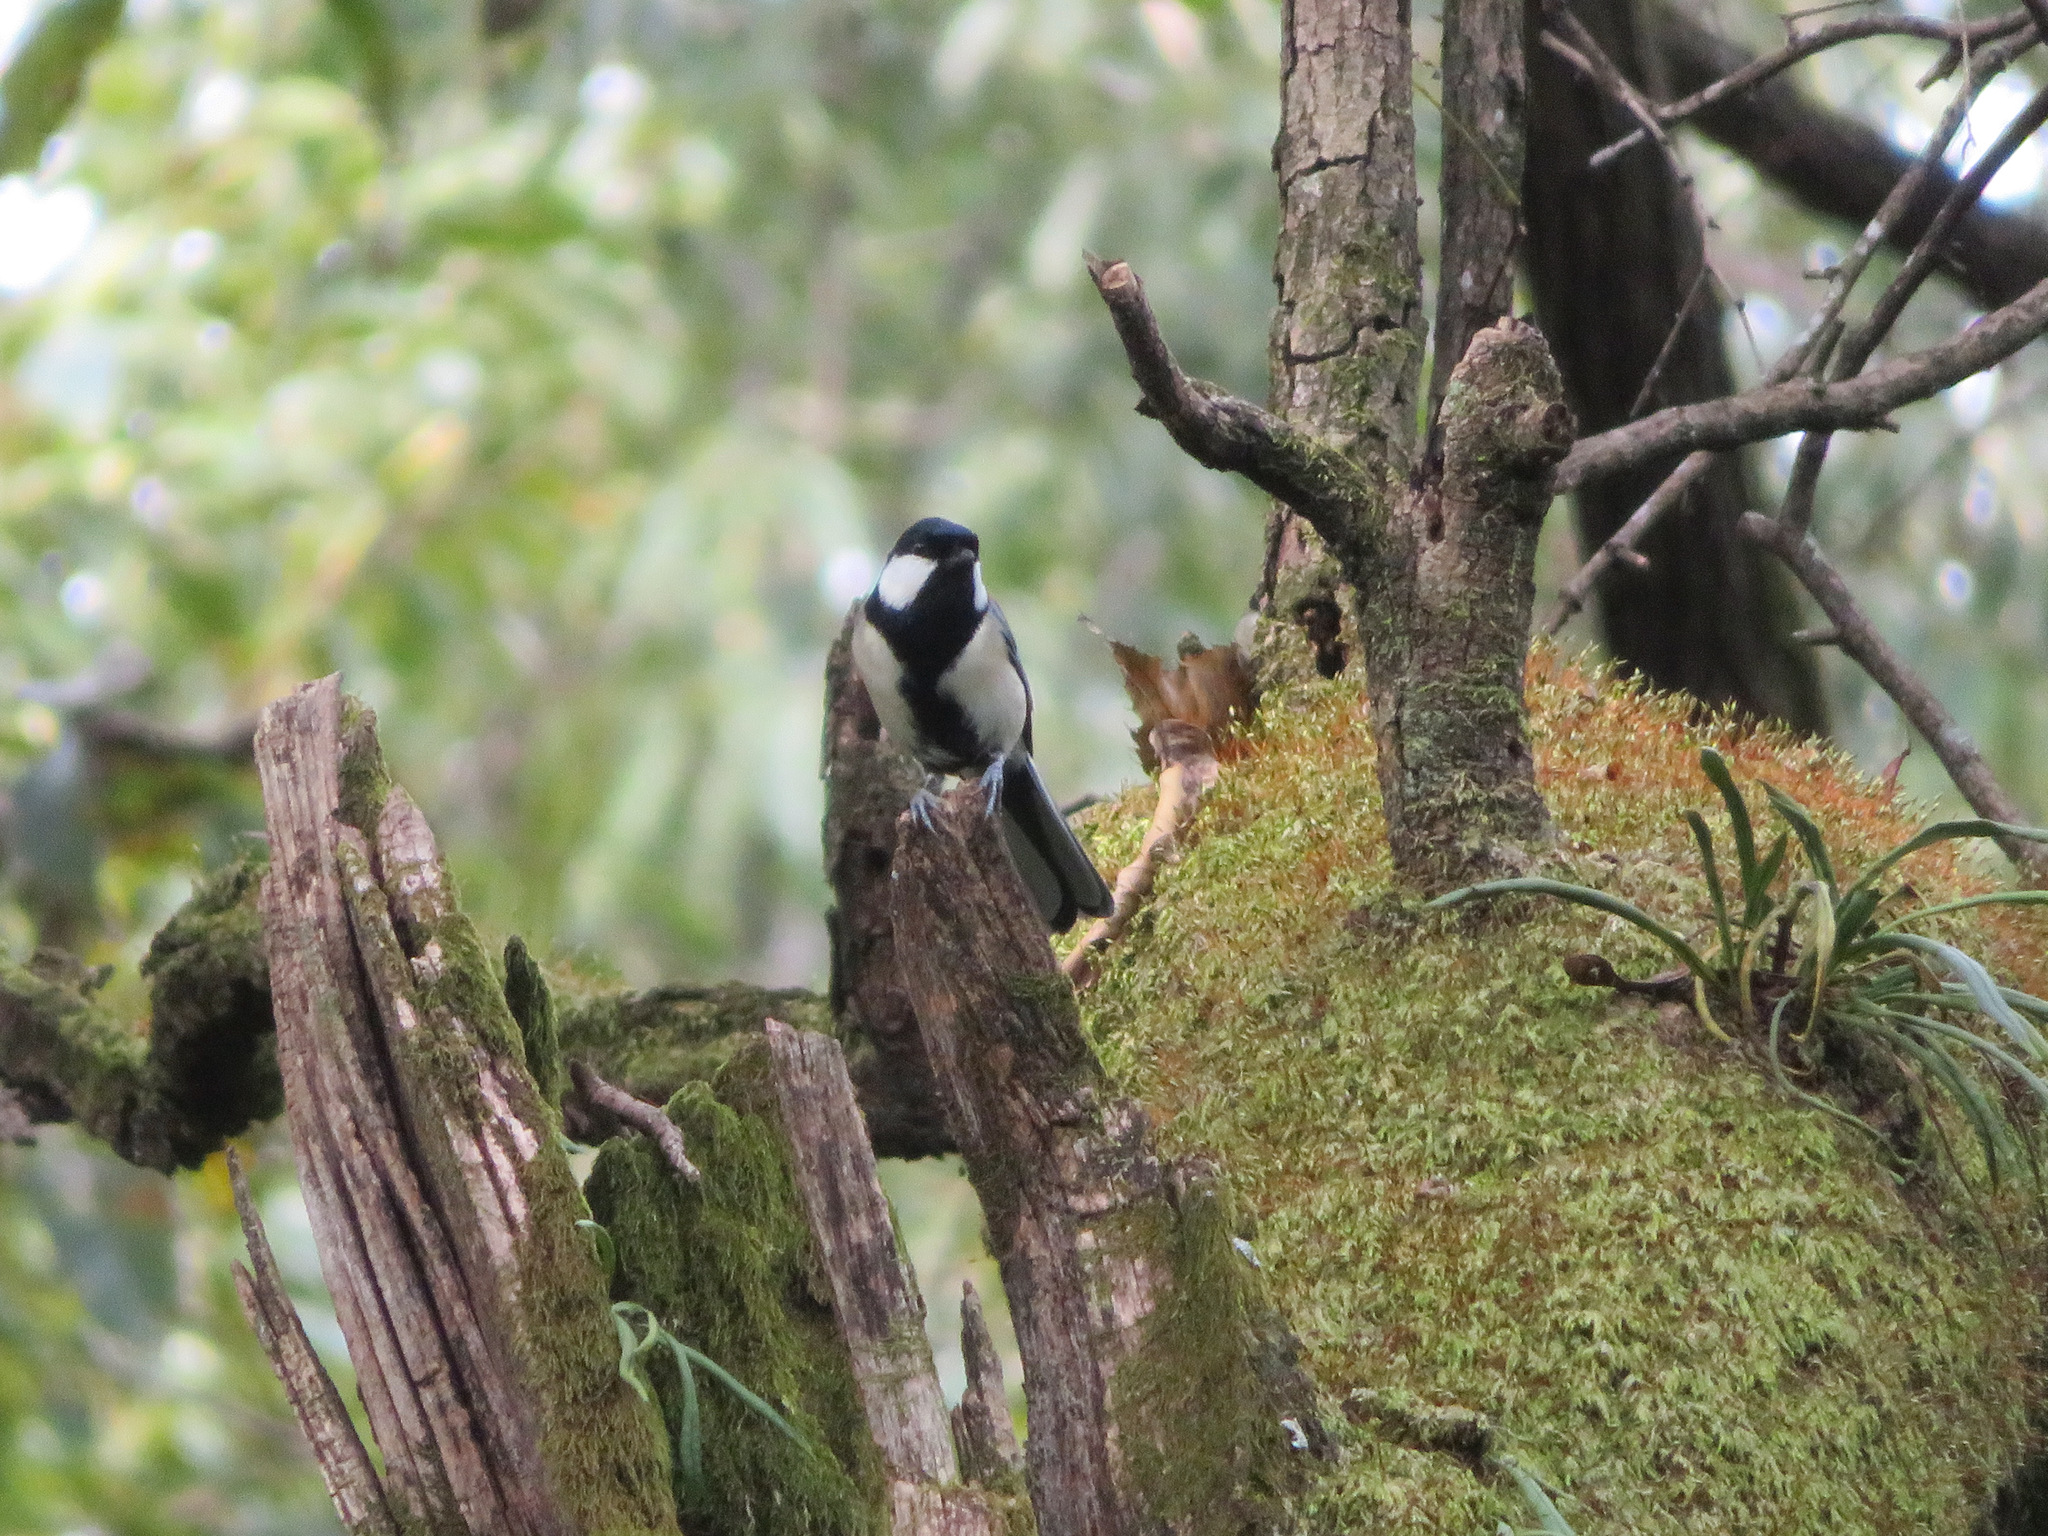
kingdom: Animalia
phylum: Chordata
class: Aves
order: Passeriformes
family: Paridae
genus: Parus
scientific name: Parus minor
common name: Japanese tit
